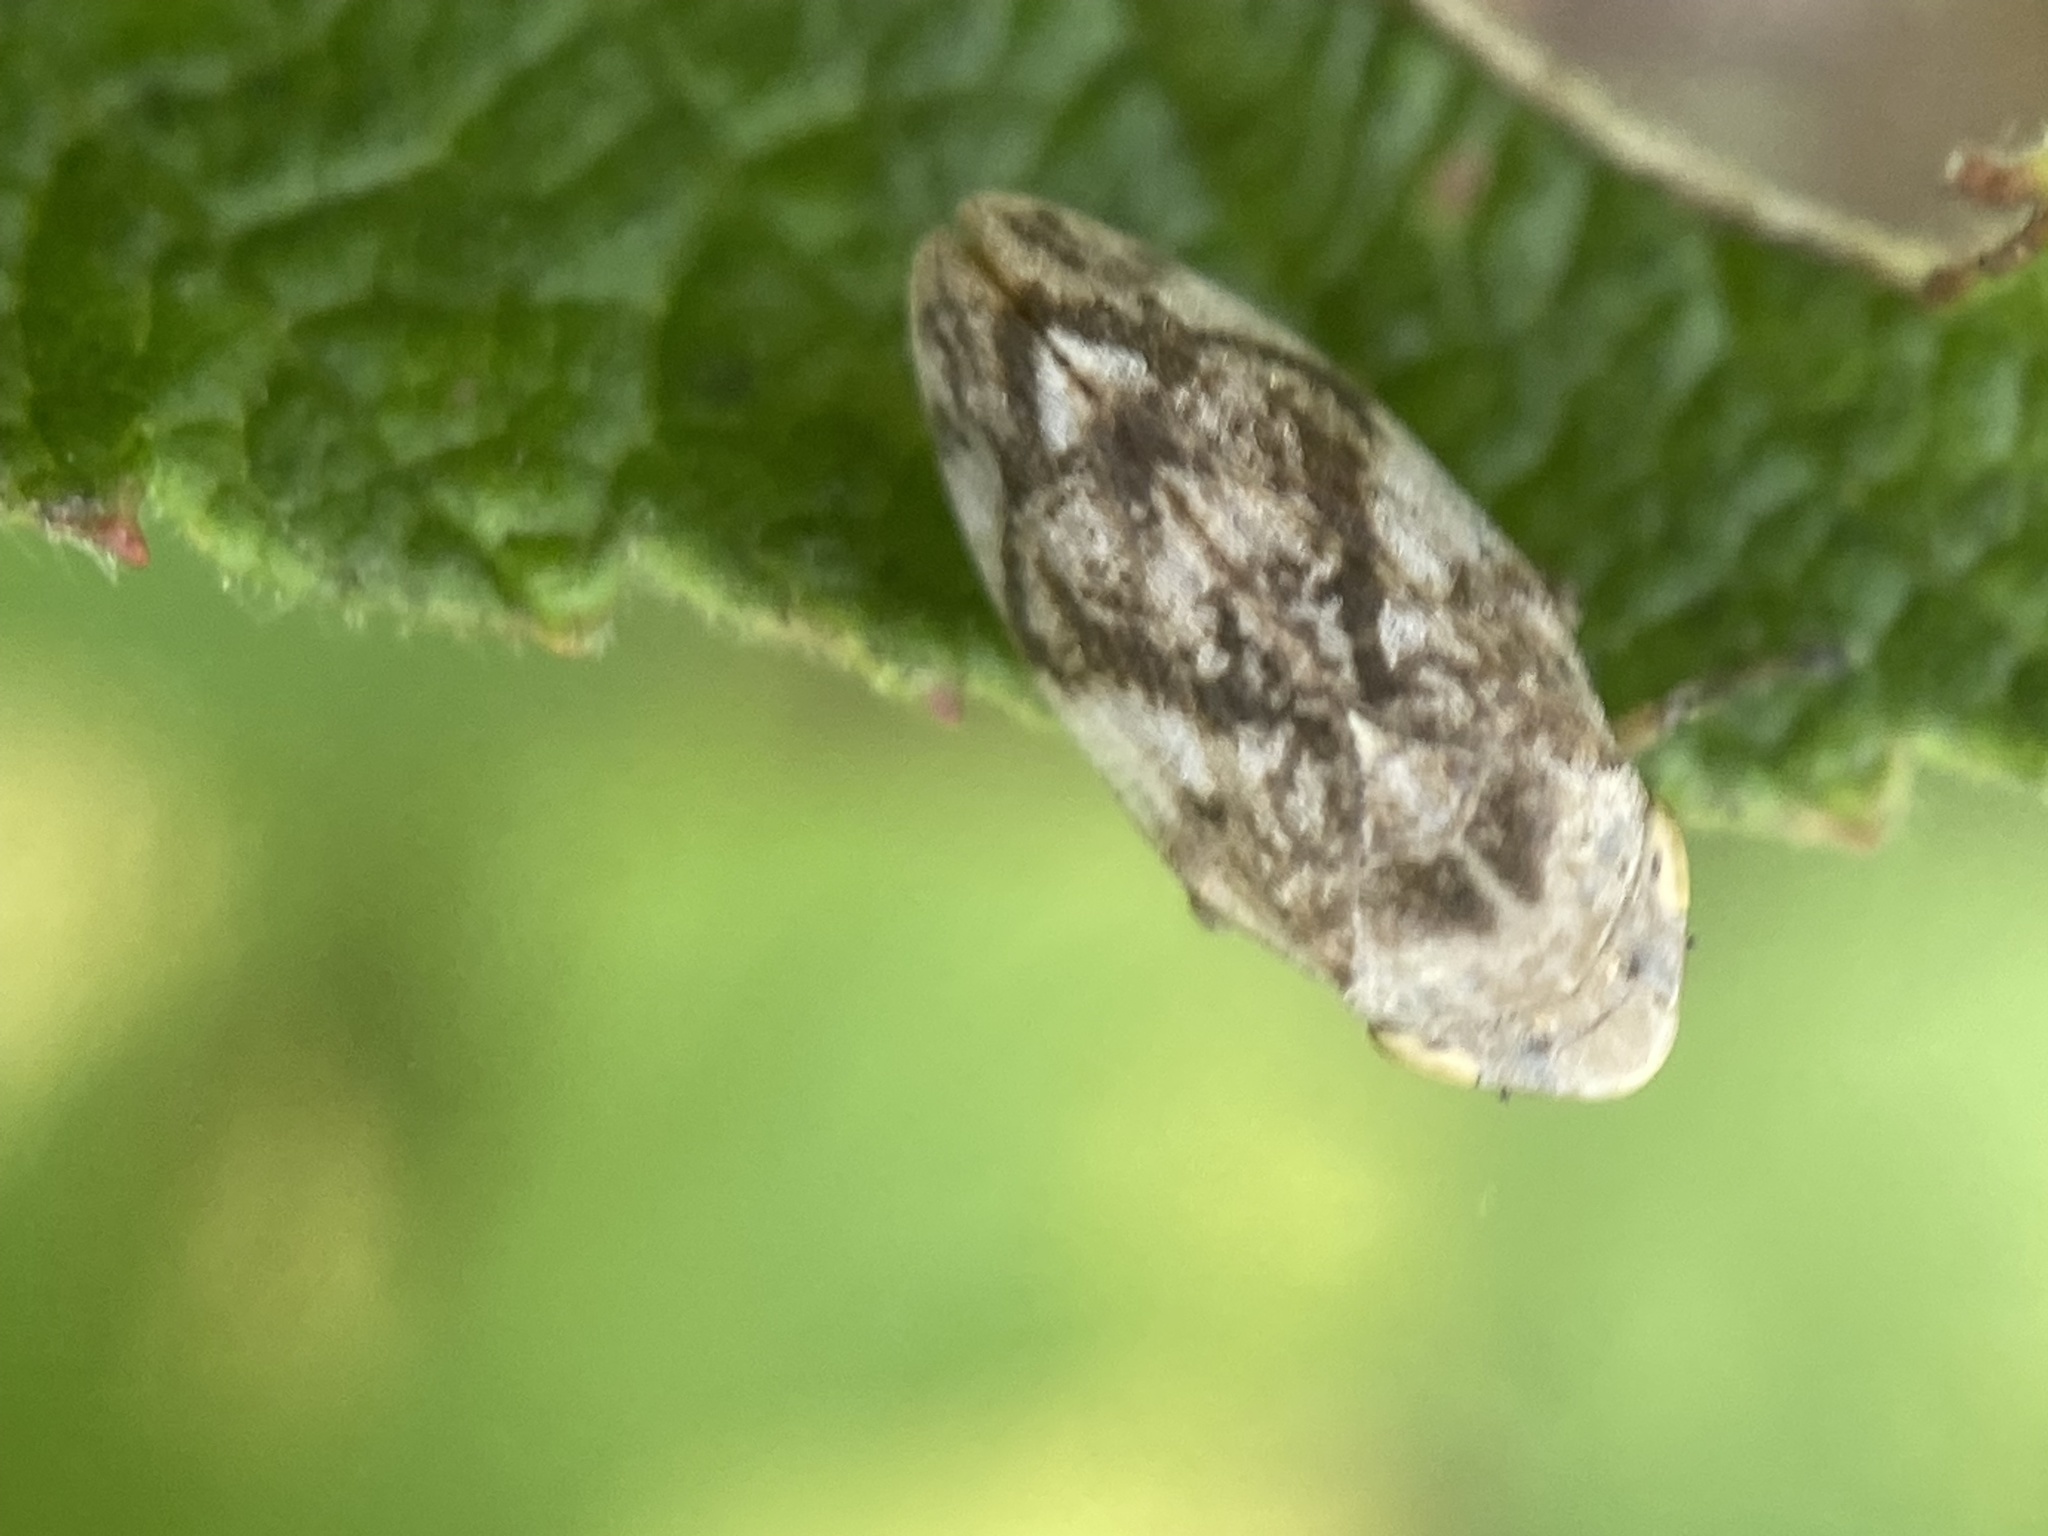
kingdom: Animalia
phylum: Arthropoda
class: Insecta
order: Hemiptera
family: Aphrophoridae
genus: Philaenus
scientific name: Philaenus spumarius
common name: Meadow spittlebug
